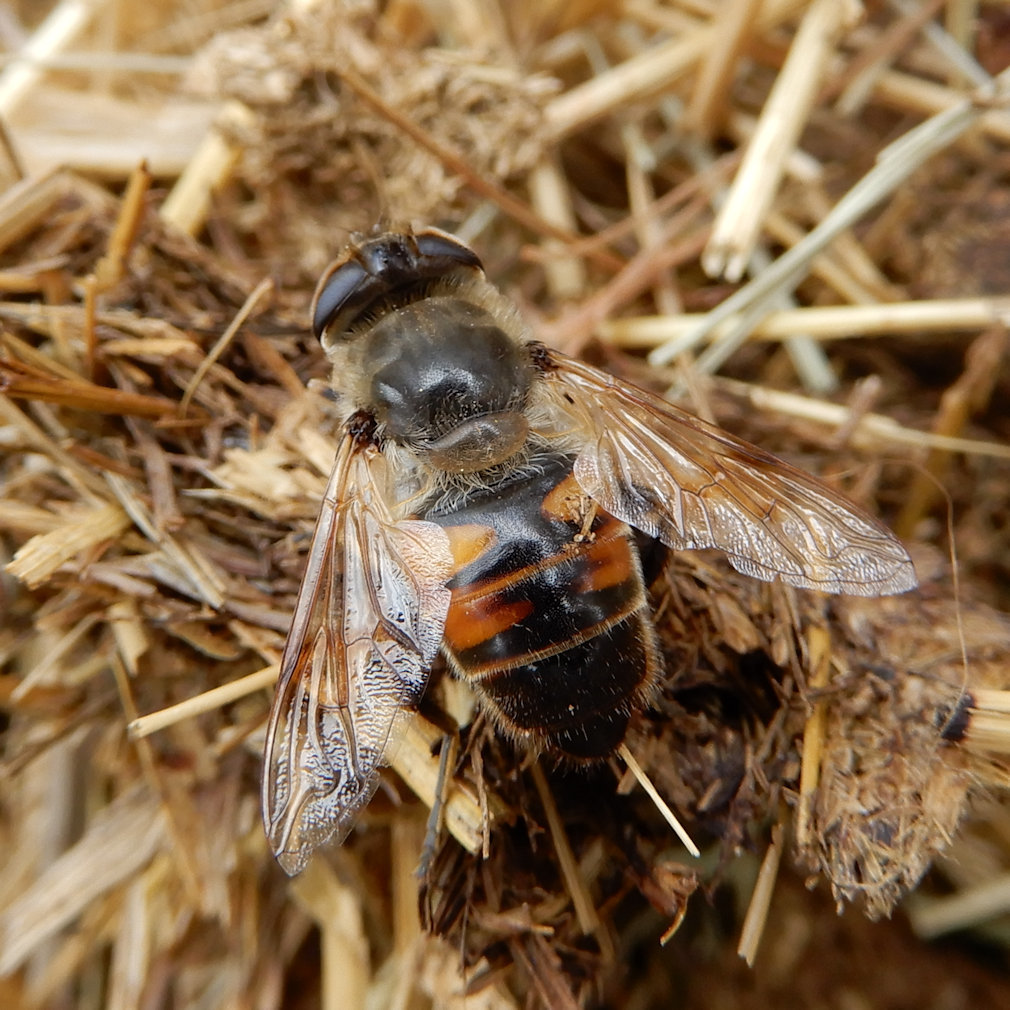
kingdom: Animalia
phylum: Arthropoda
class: Insecta
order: Diptera
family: Syrphidae
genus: Eristalis
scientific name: Eristalis tenax
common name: Drone fly
